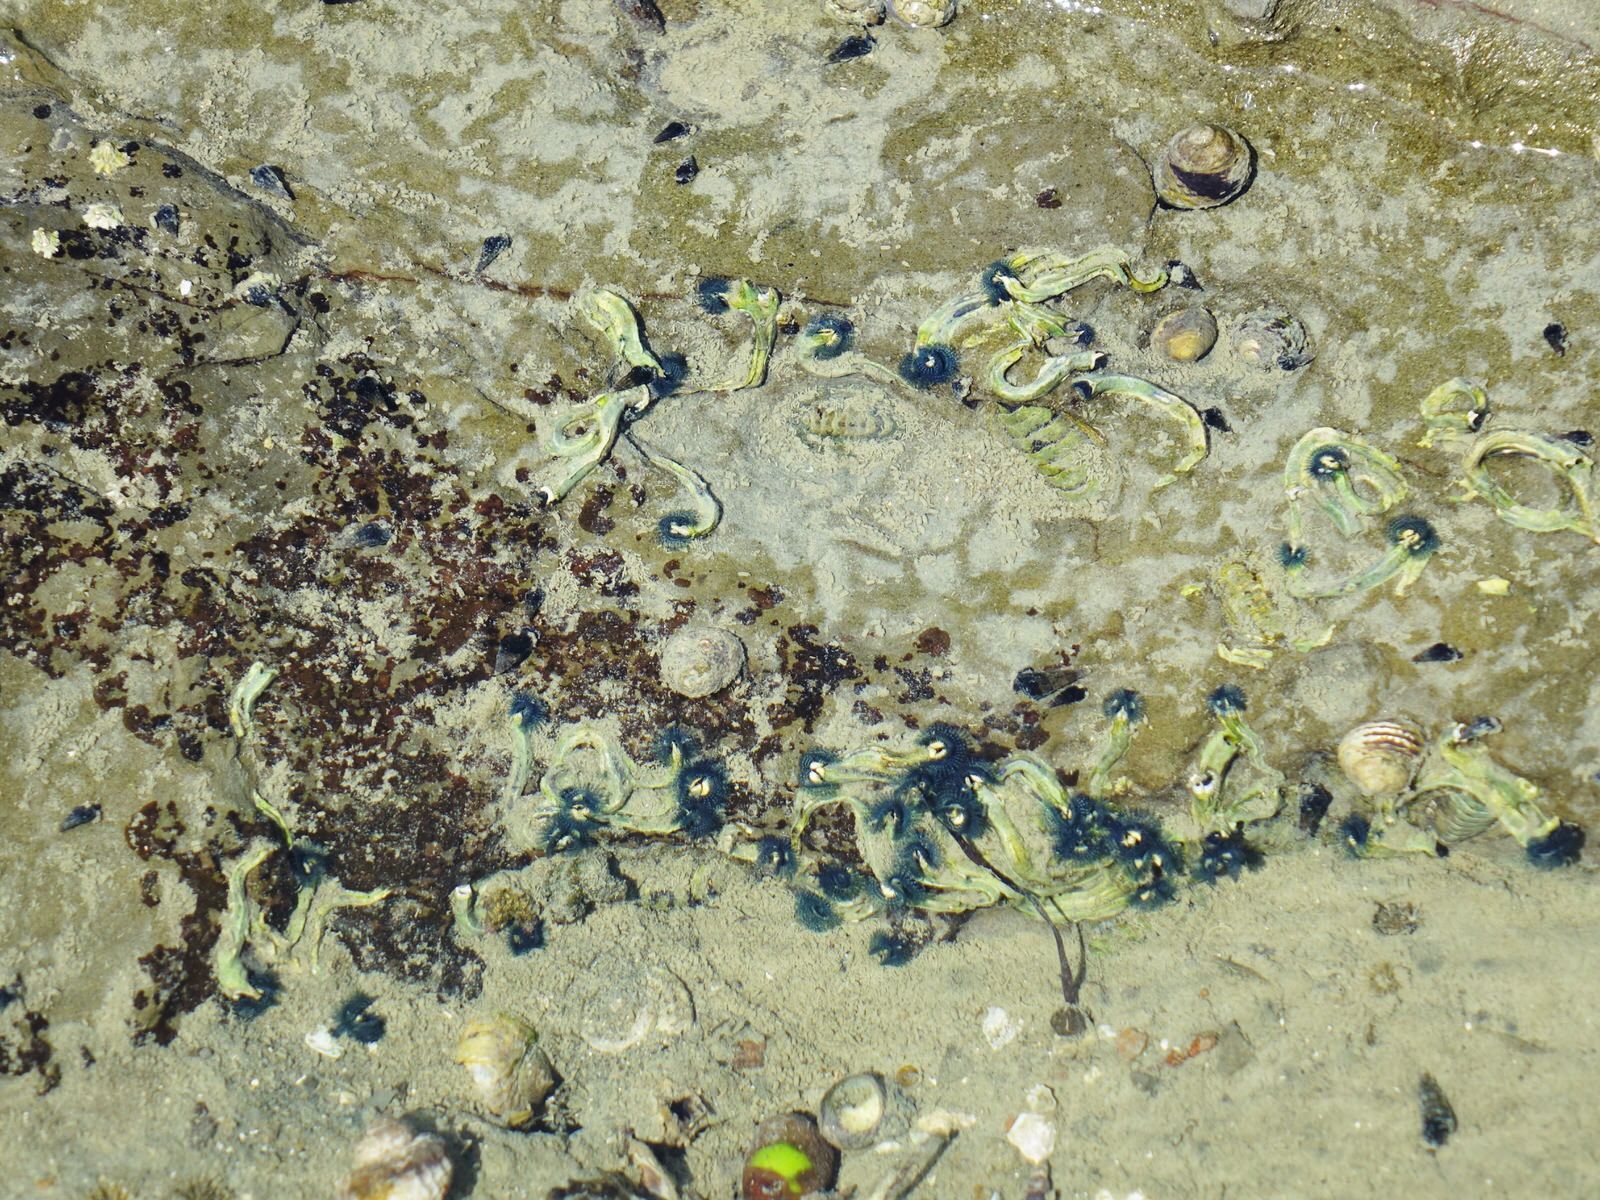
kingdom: Animalia
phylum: Annelida
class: Polychaeta
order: Sabellida
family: Serpulidae
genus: Spirobranchus
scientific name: Spirobranchus cariniferus
